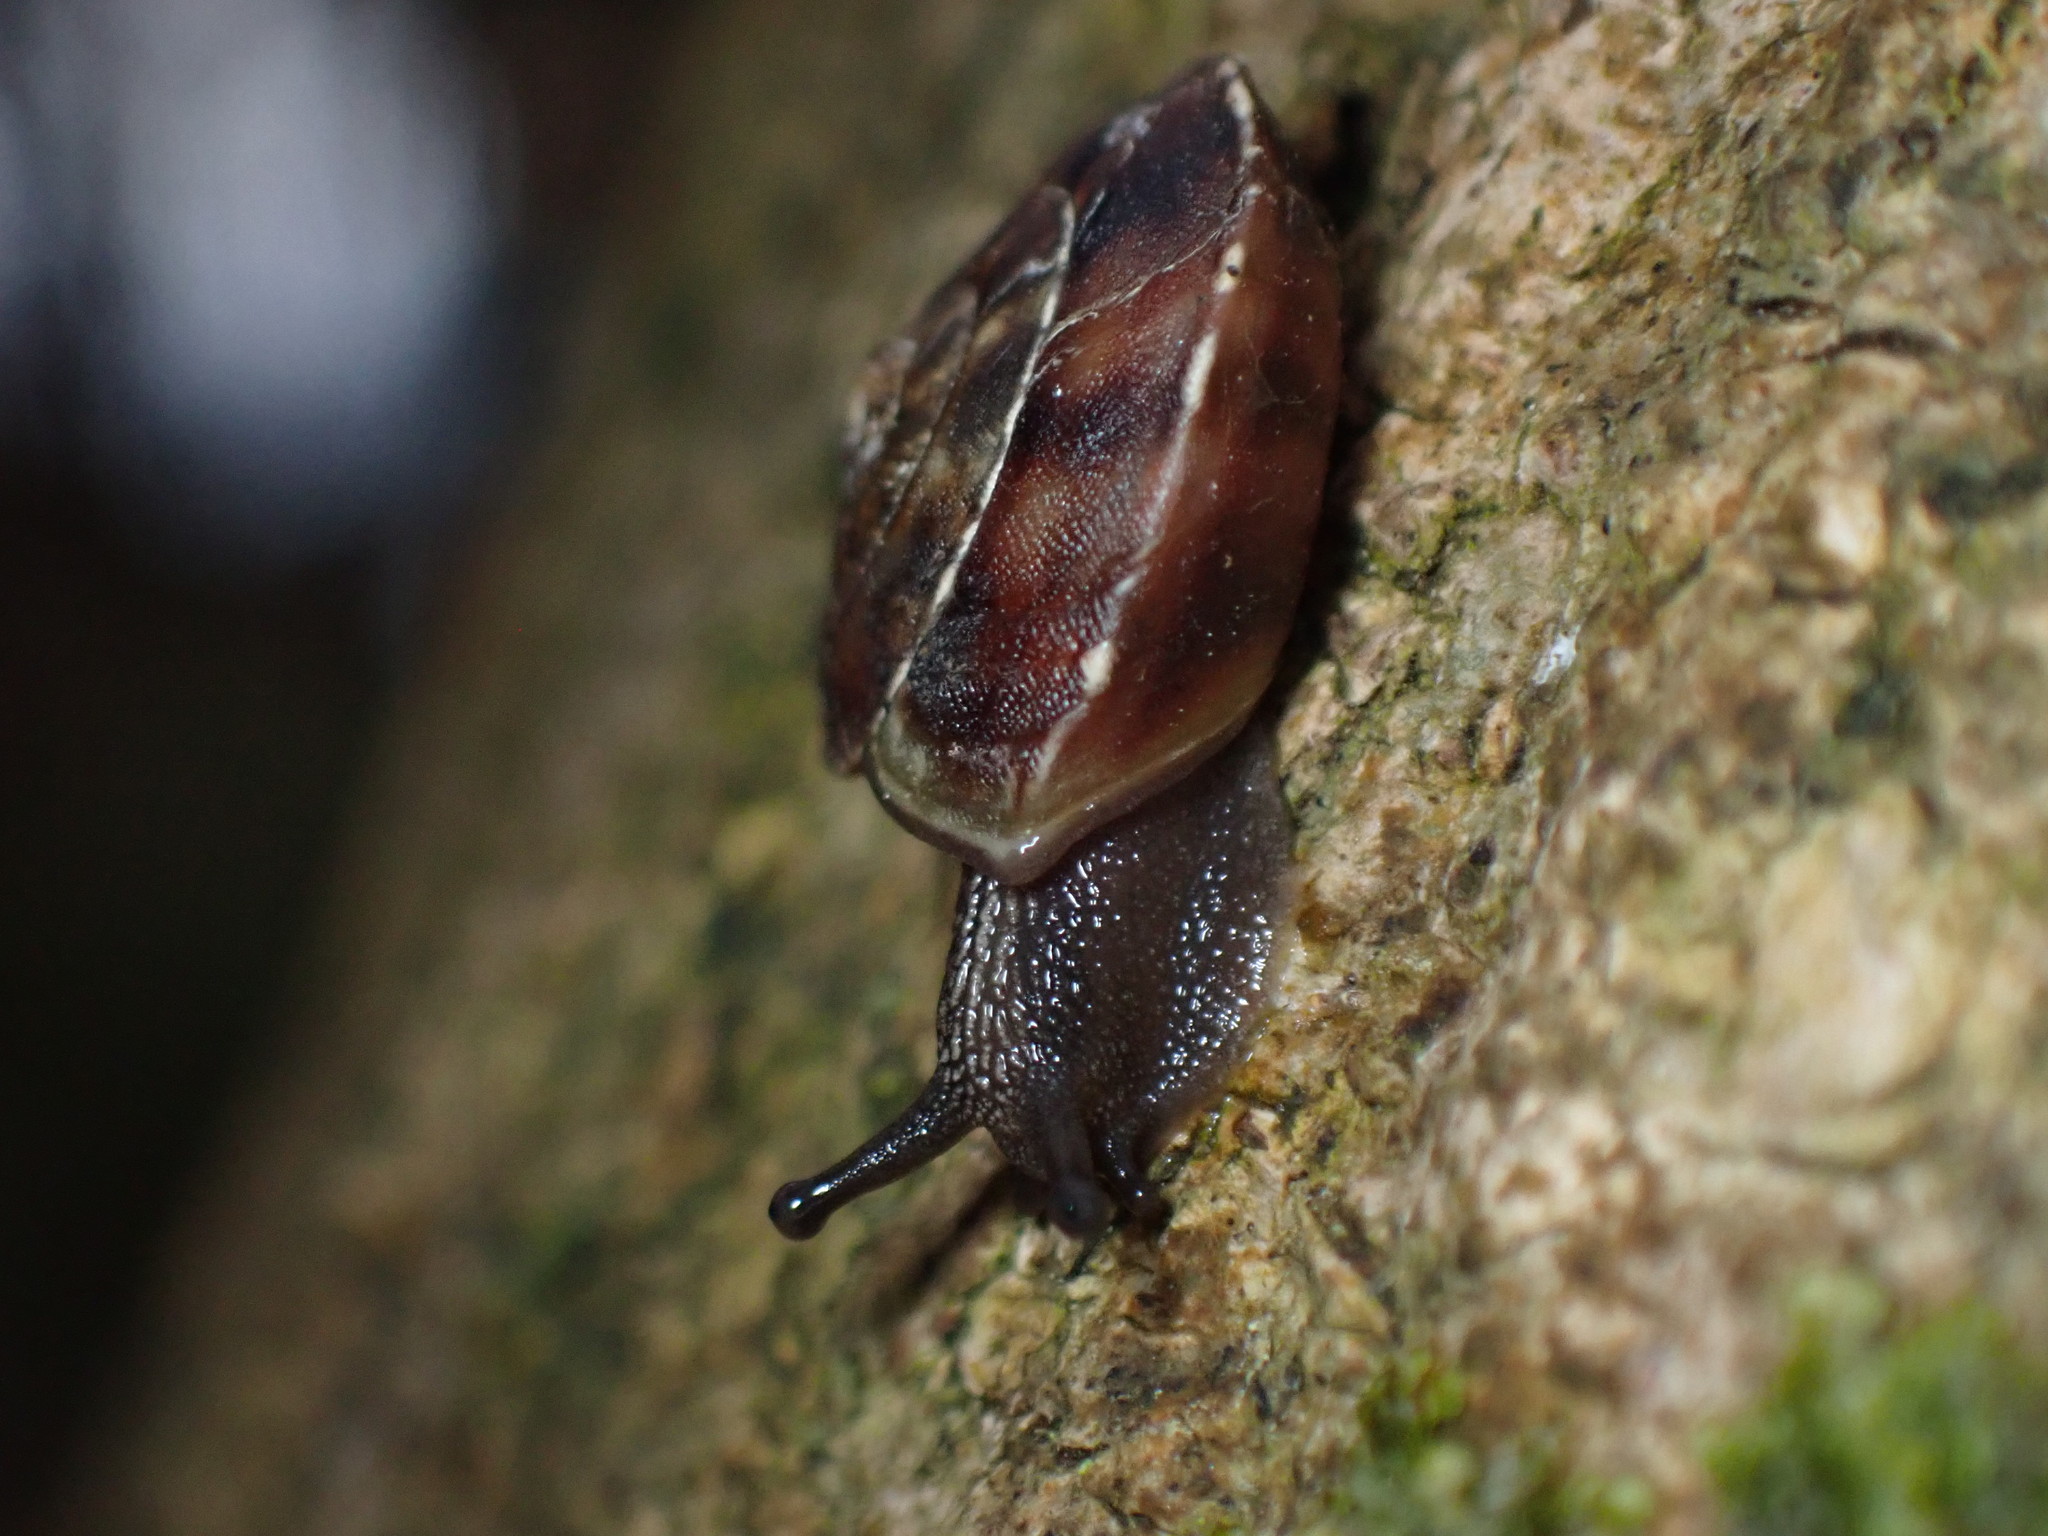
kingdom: Animalia
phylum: Mollusca
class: Gastropoda
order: Stylommatophora
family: Helicidae
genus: Helicigona
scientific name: Helicigona lapicida
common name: Lapidary snail
